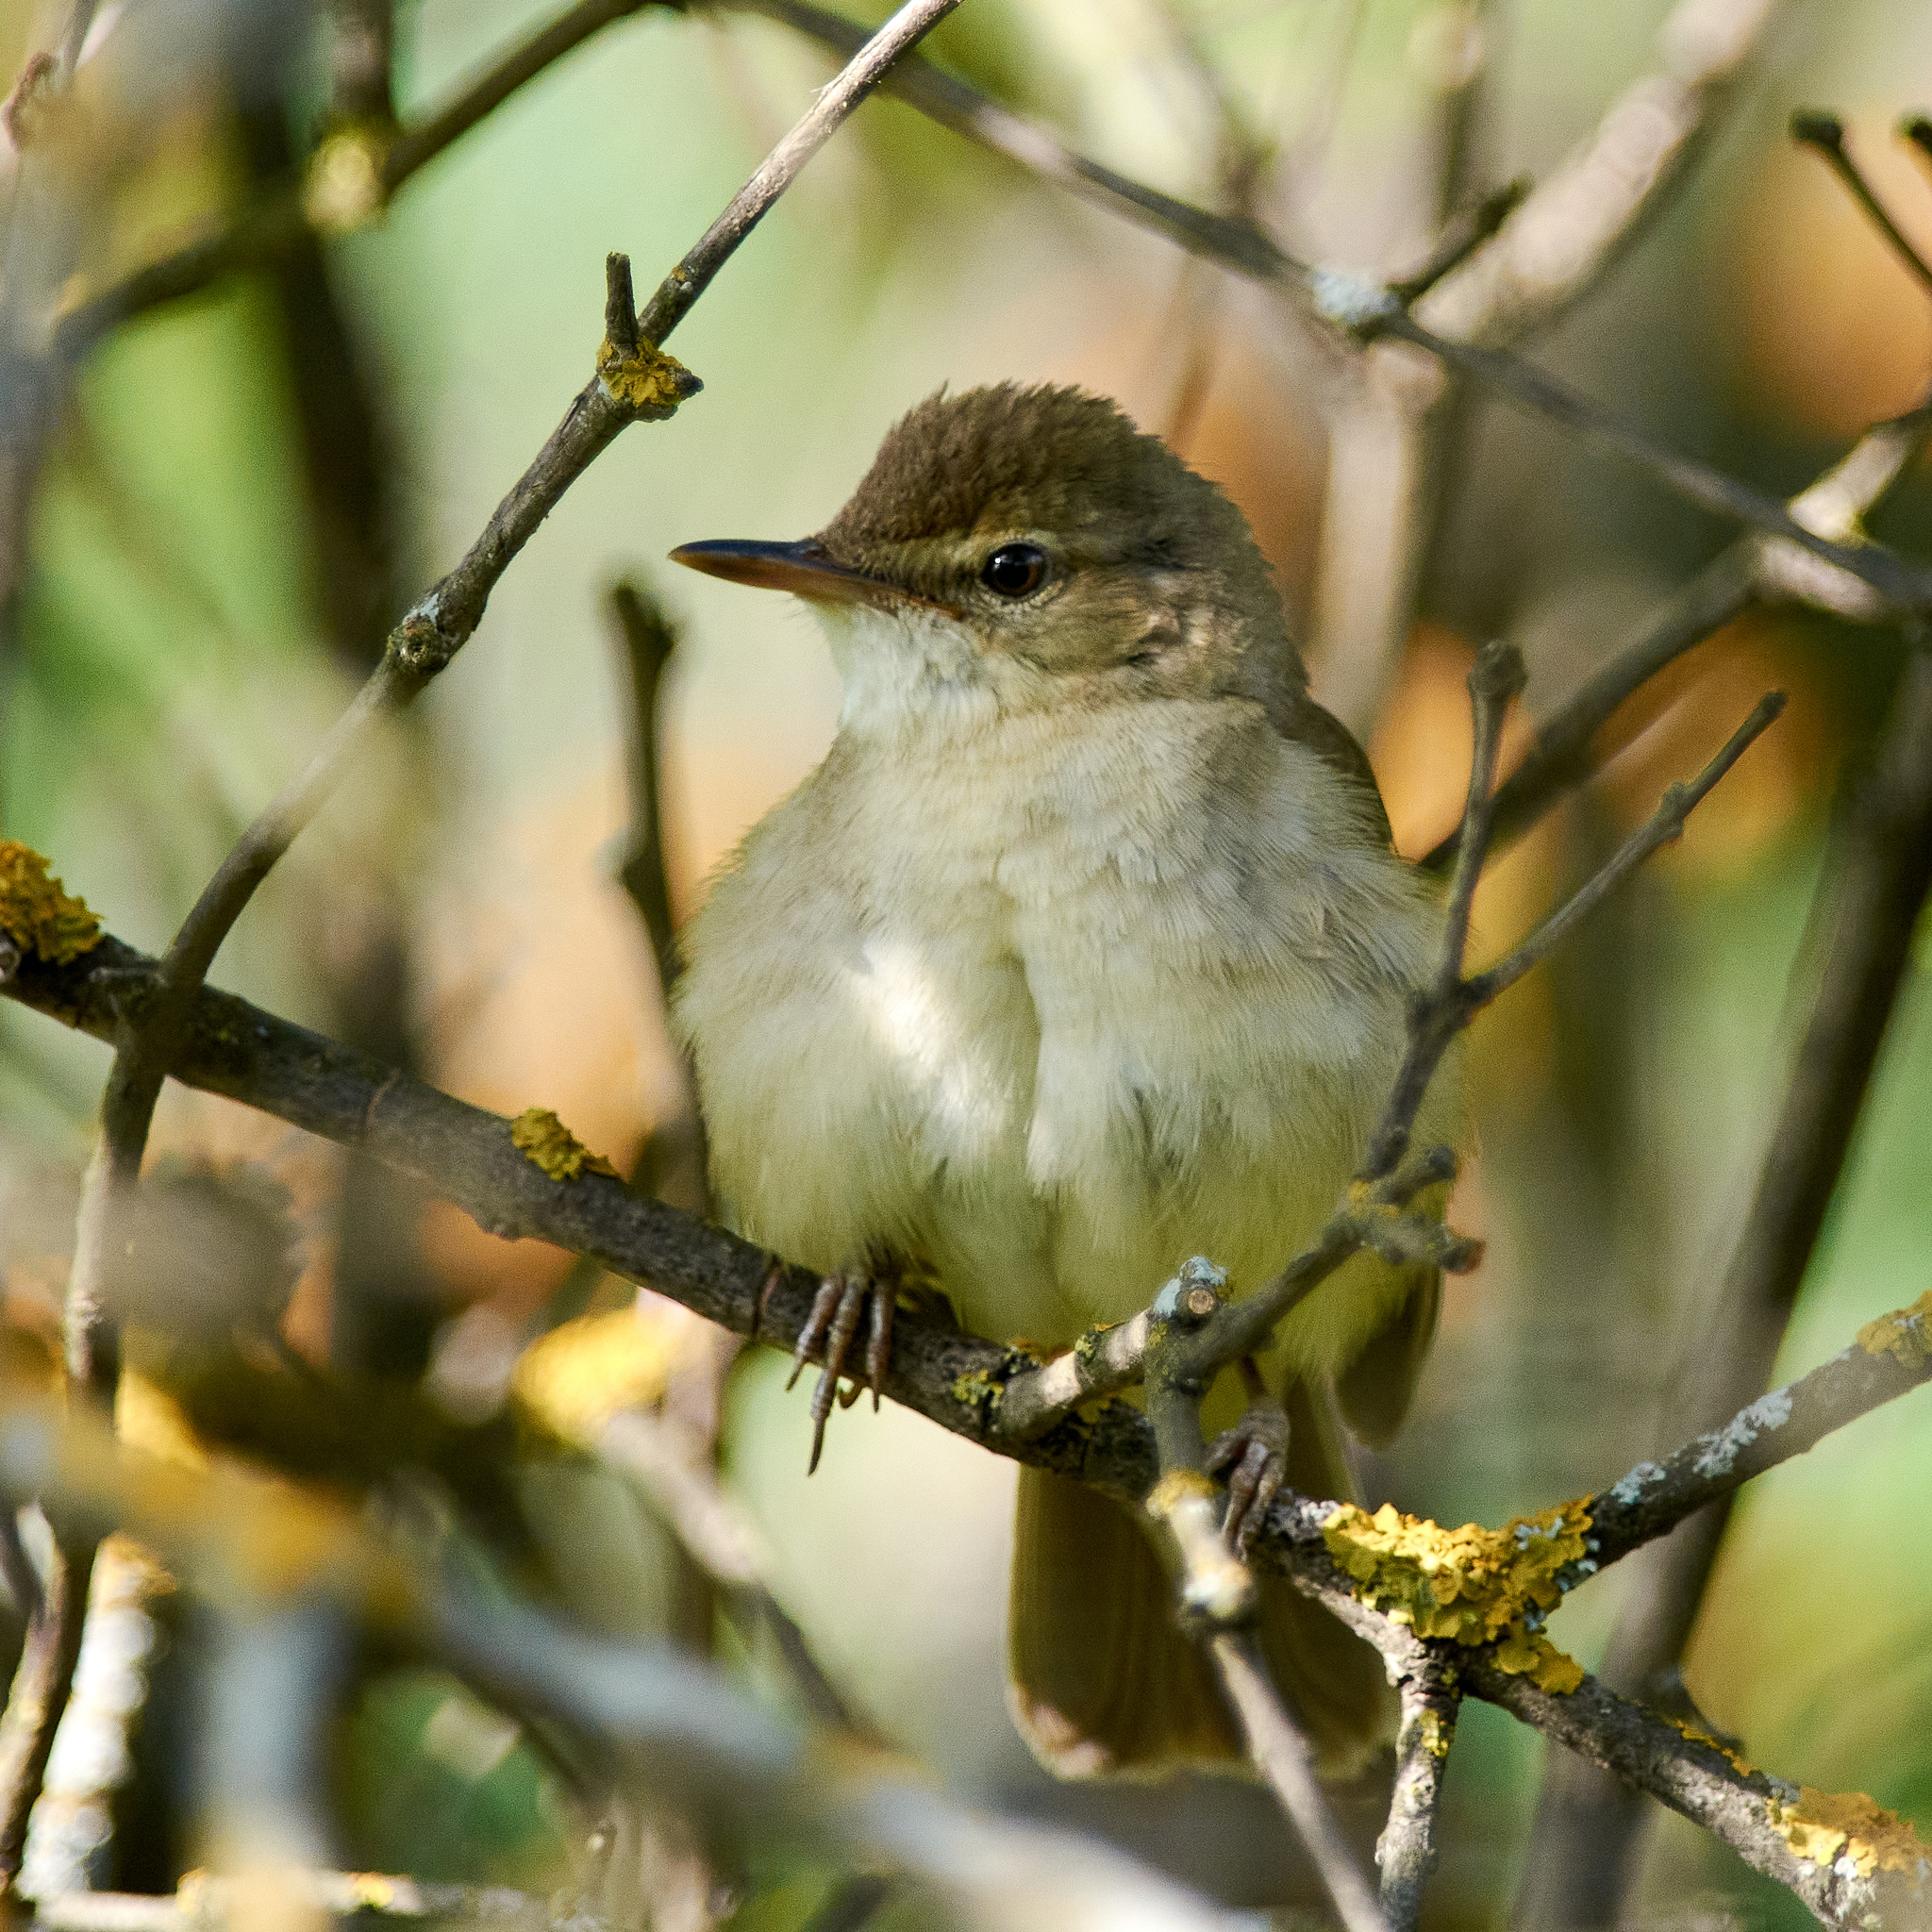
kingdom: Animalia
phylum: Chordata
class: Aves
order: Passeriformes
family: Acrocephalidae
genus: Acrocephalus
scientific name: Acrocephalus dumetorum
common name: Blyth's reed warbler
